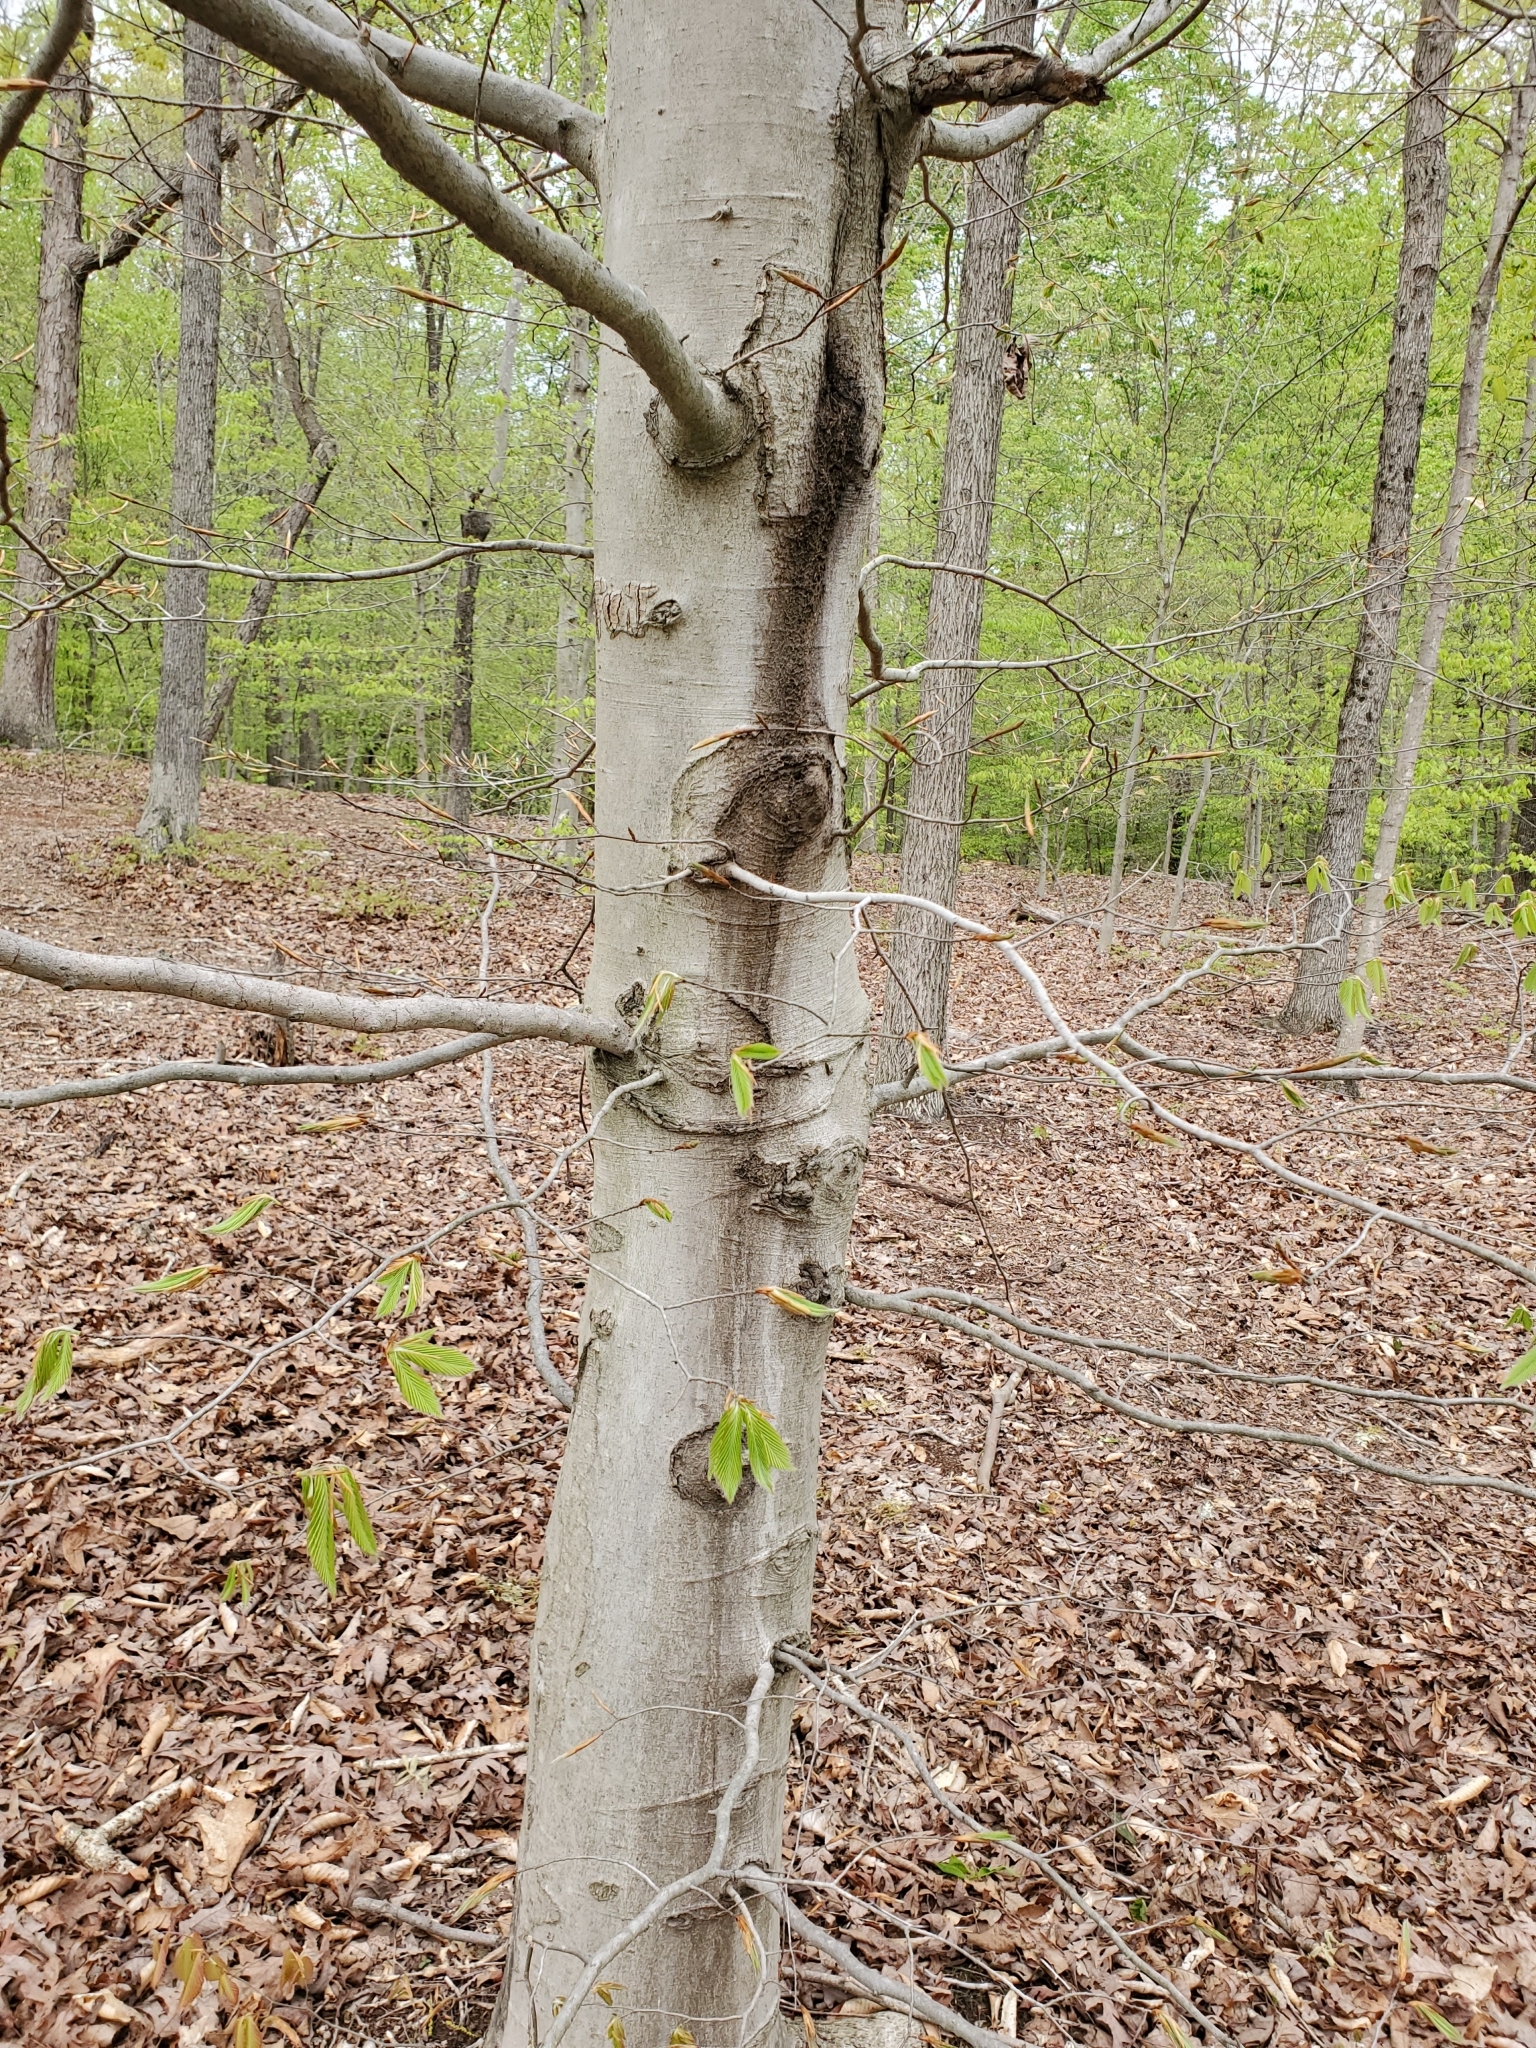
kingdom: Plantae
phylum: Tracheophyta
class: Magnoliopsida
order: Fagales
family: Fagaceae
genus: Fagus
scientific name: Fagus grandifolia
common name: American beech
